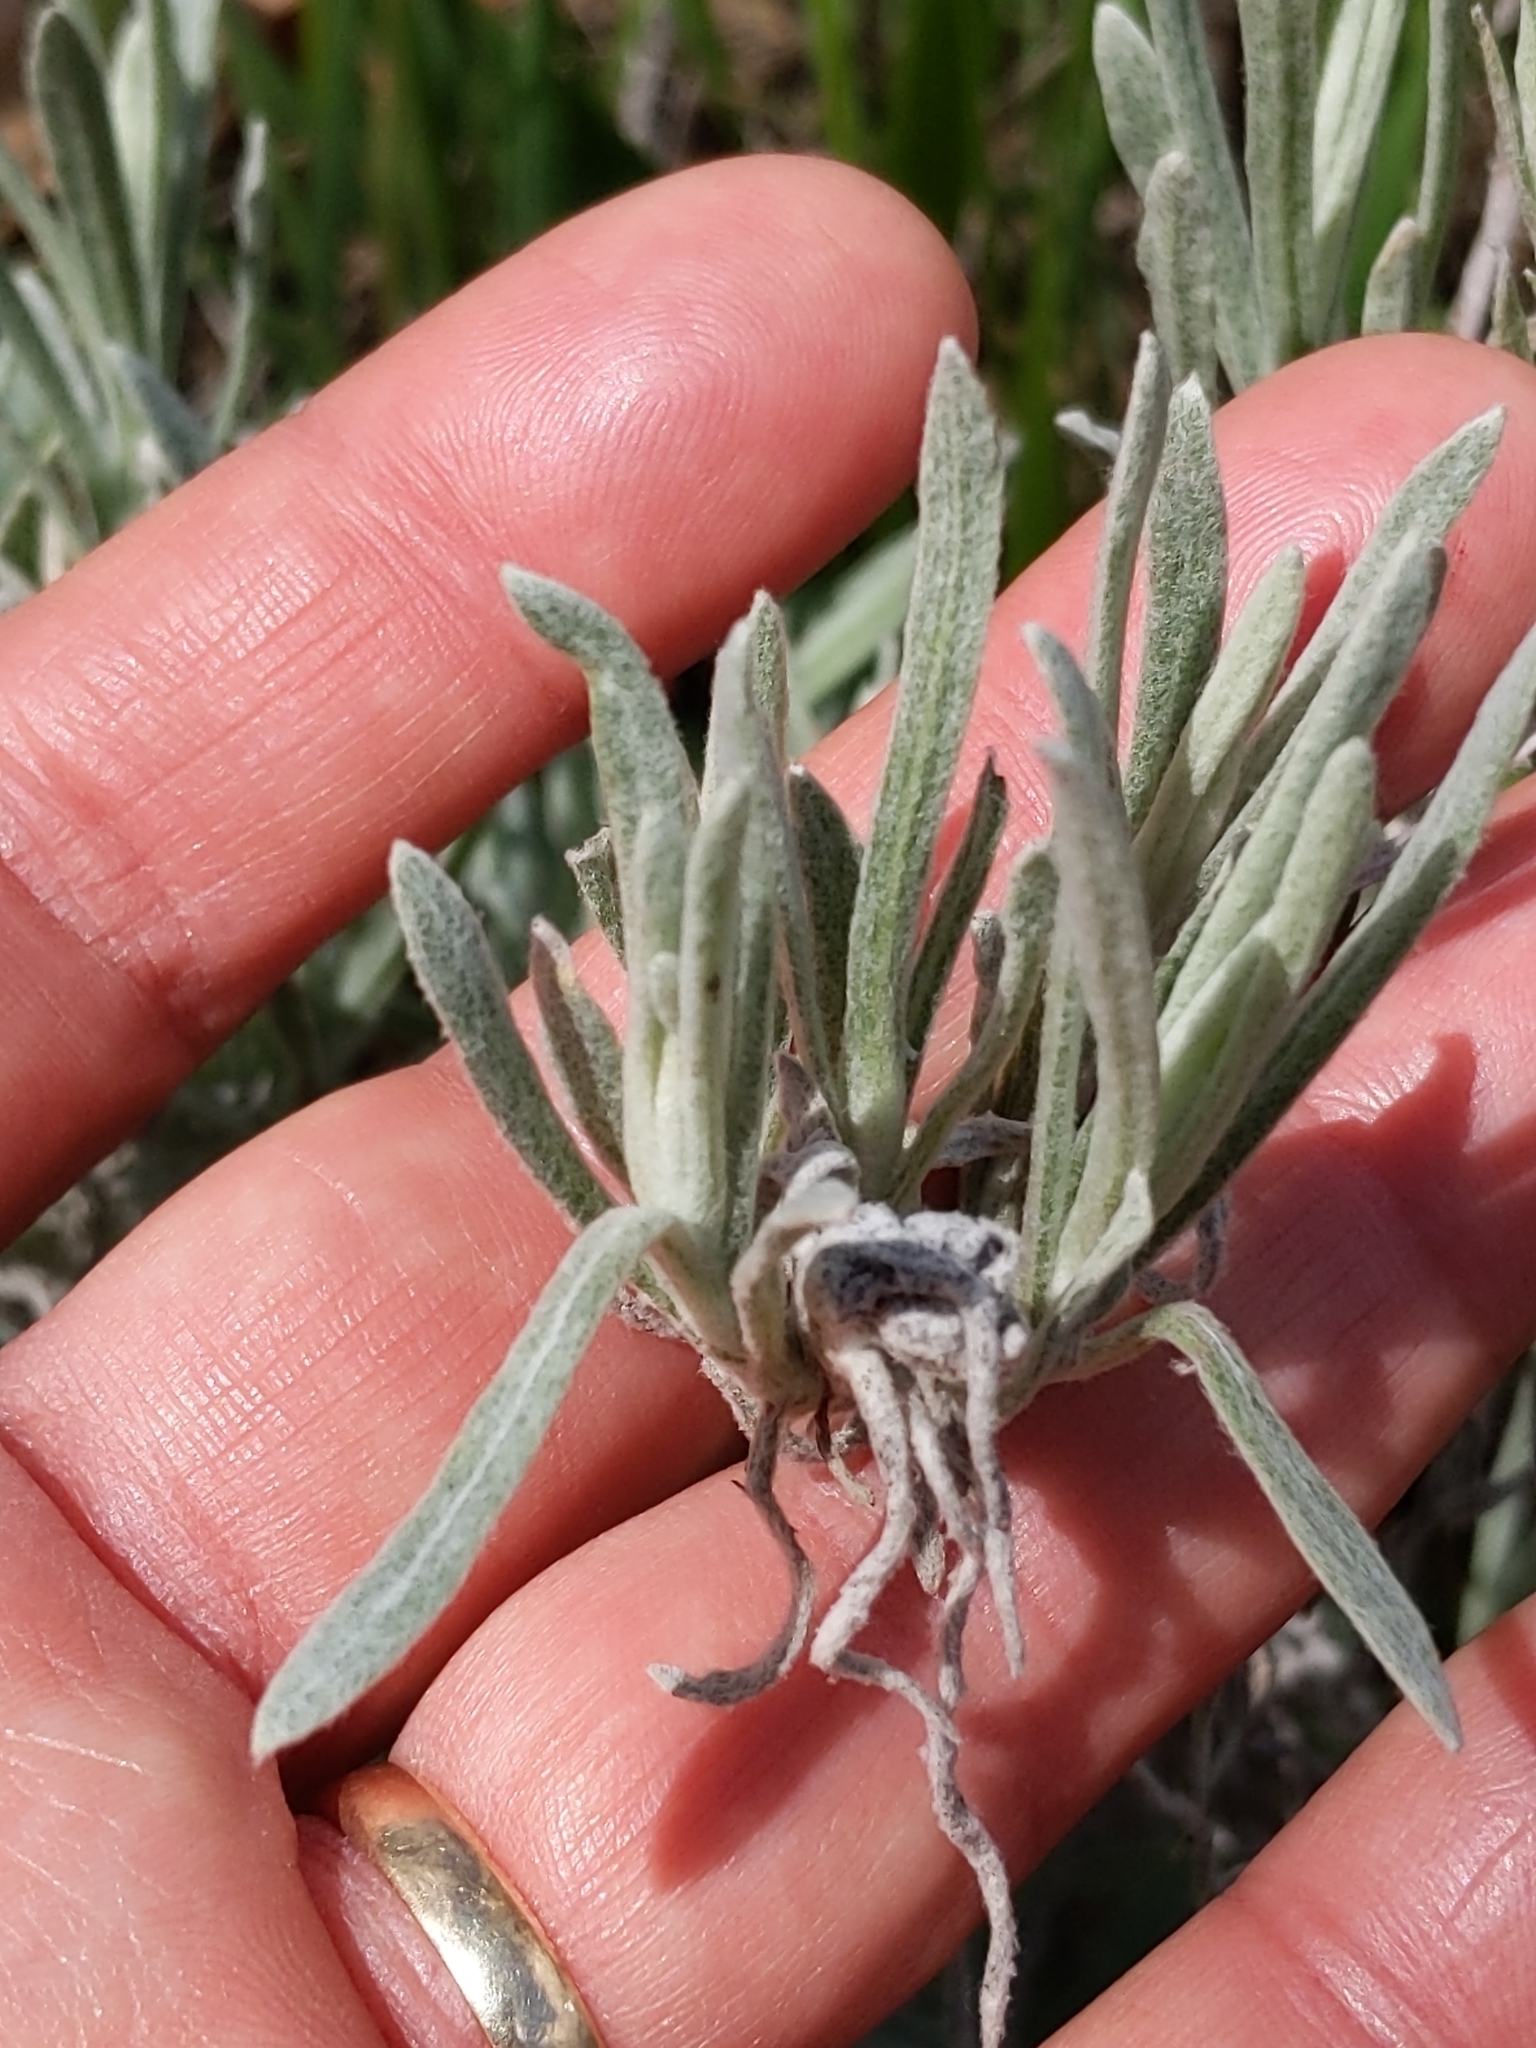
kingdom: Plantae
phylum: Tracheophyta
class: Magnoliopsida
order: Asterales
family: Asteraceae
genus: Pseudognaphalium
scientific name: Pseudognaphalium beneolens
